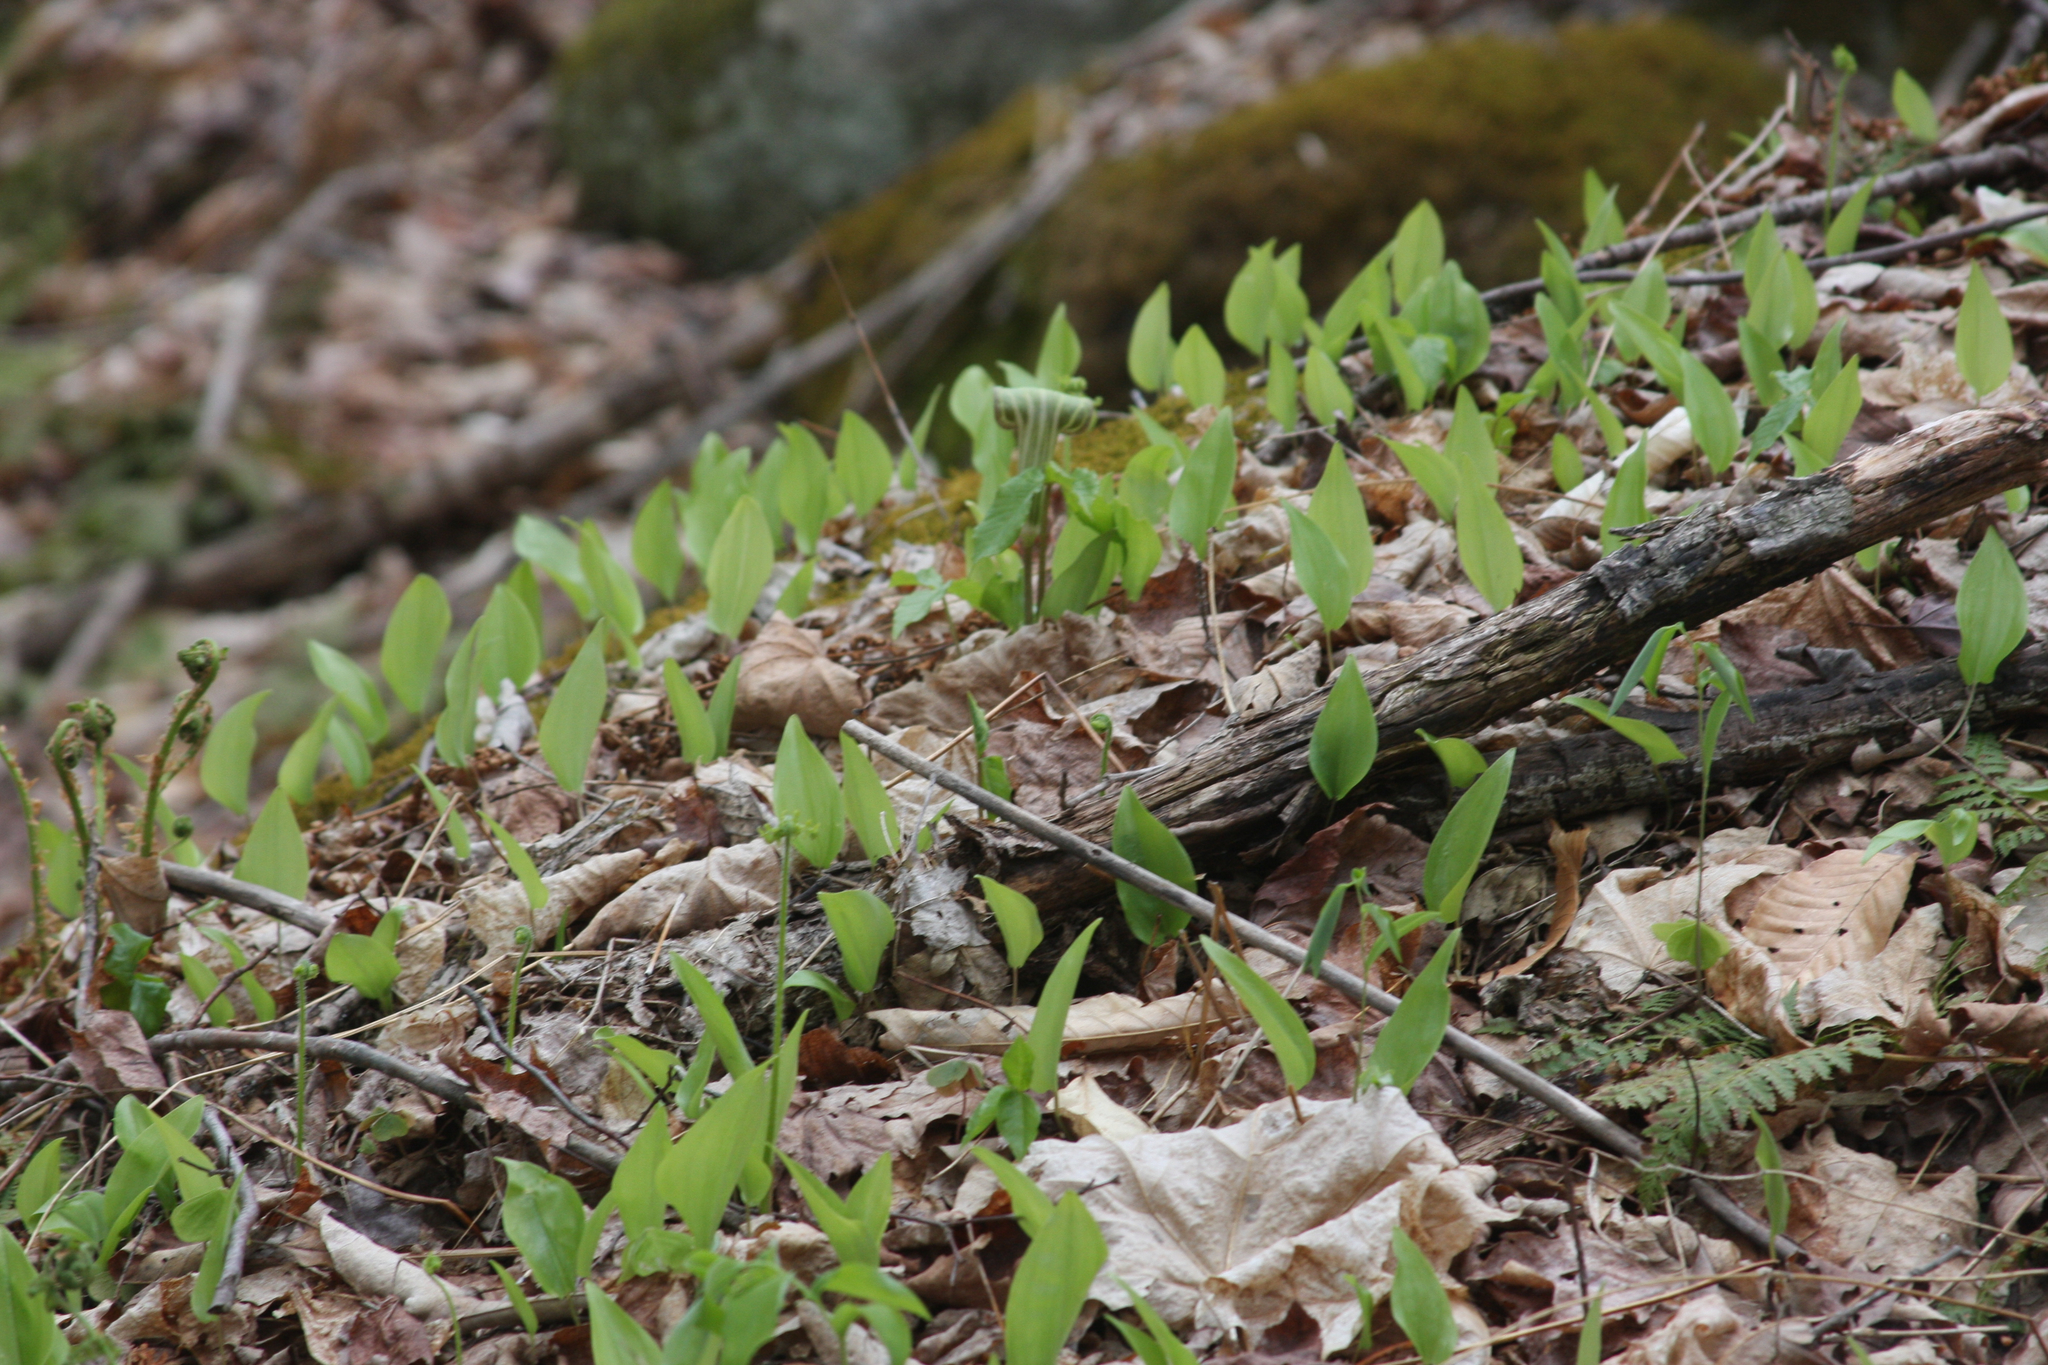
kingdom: Plantae
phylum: Tracheophyta
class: Liliopsida
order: Asparagales
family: Asparagaceae
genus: Maianthemum
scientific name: Maianthemum canadense
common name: False lily-of-the-valley
